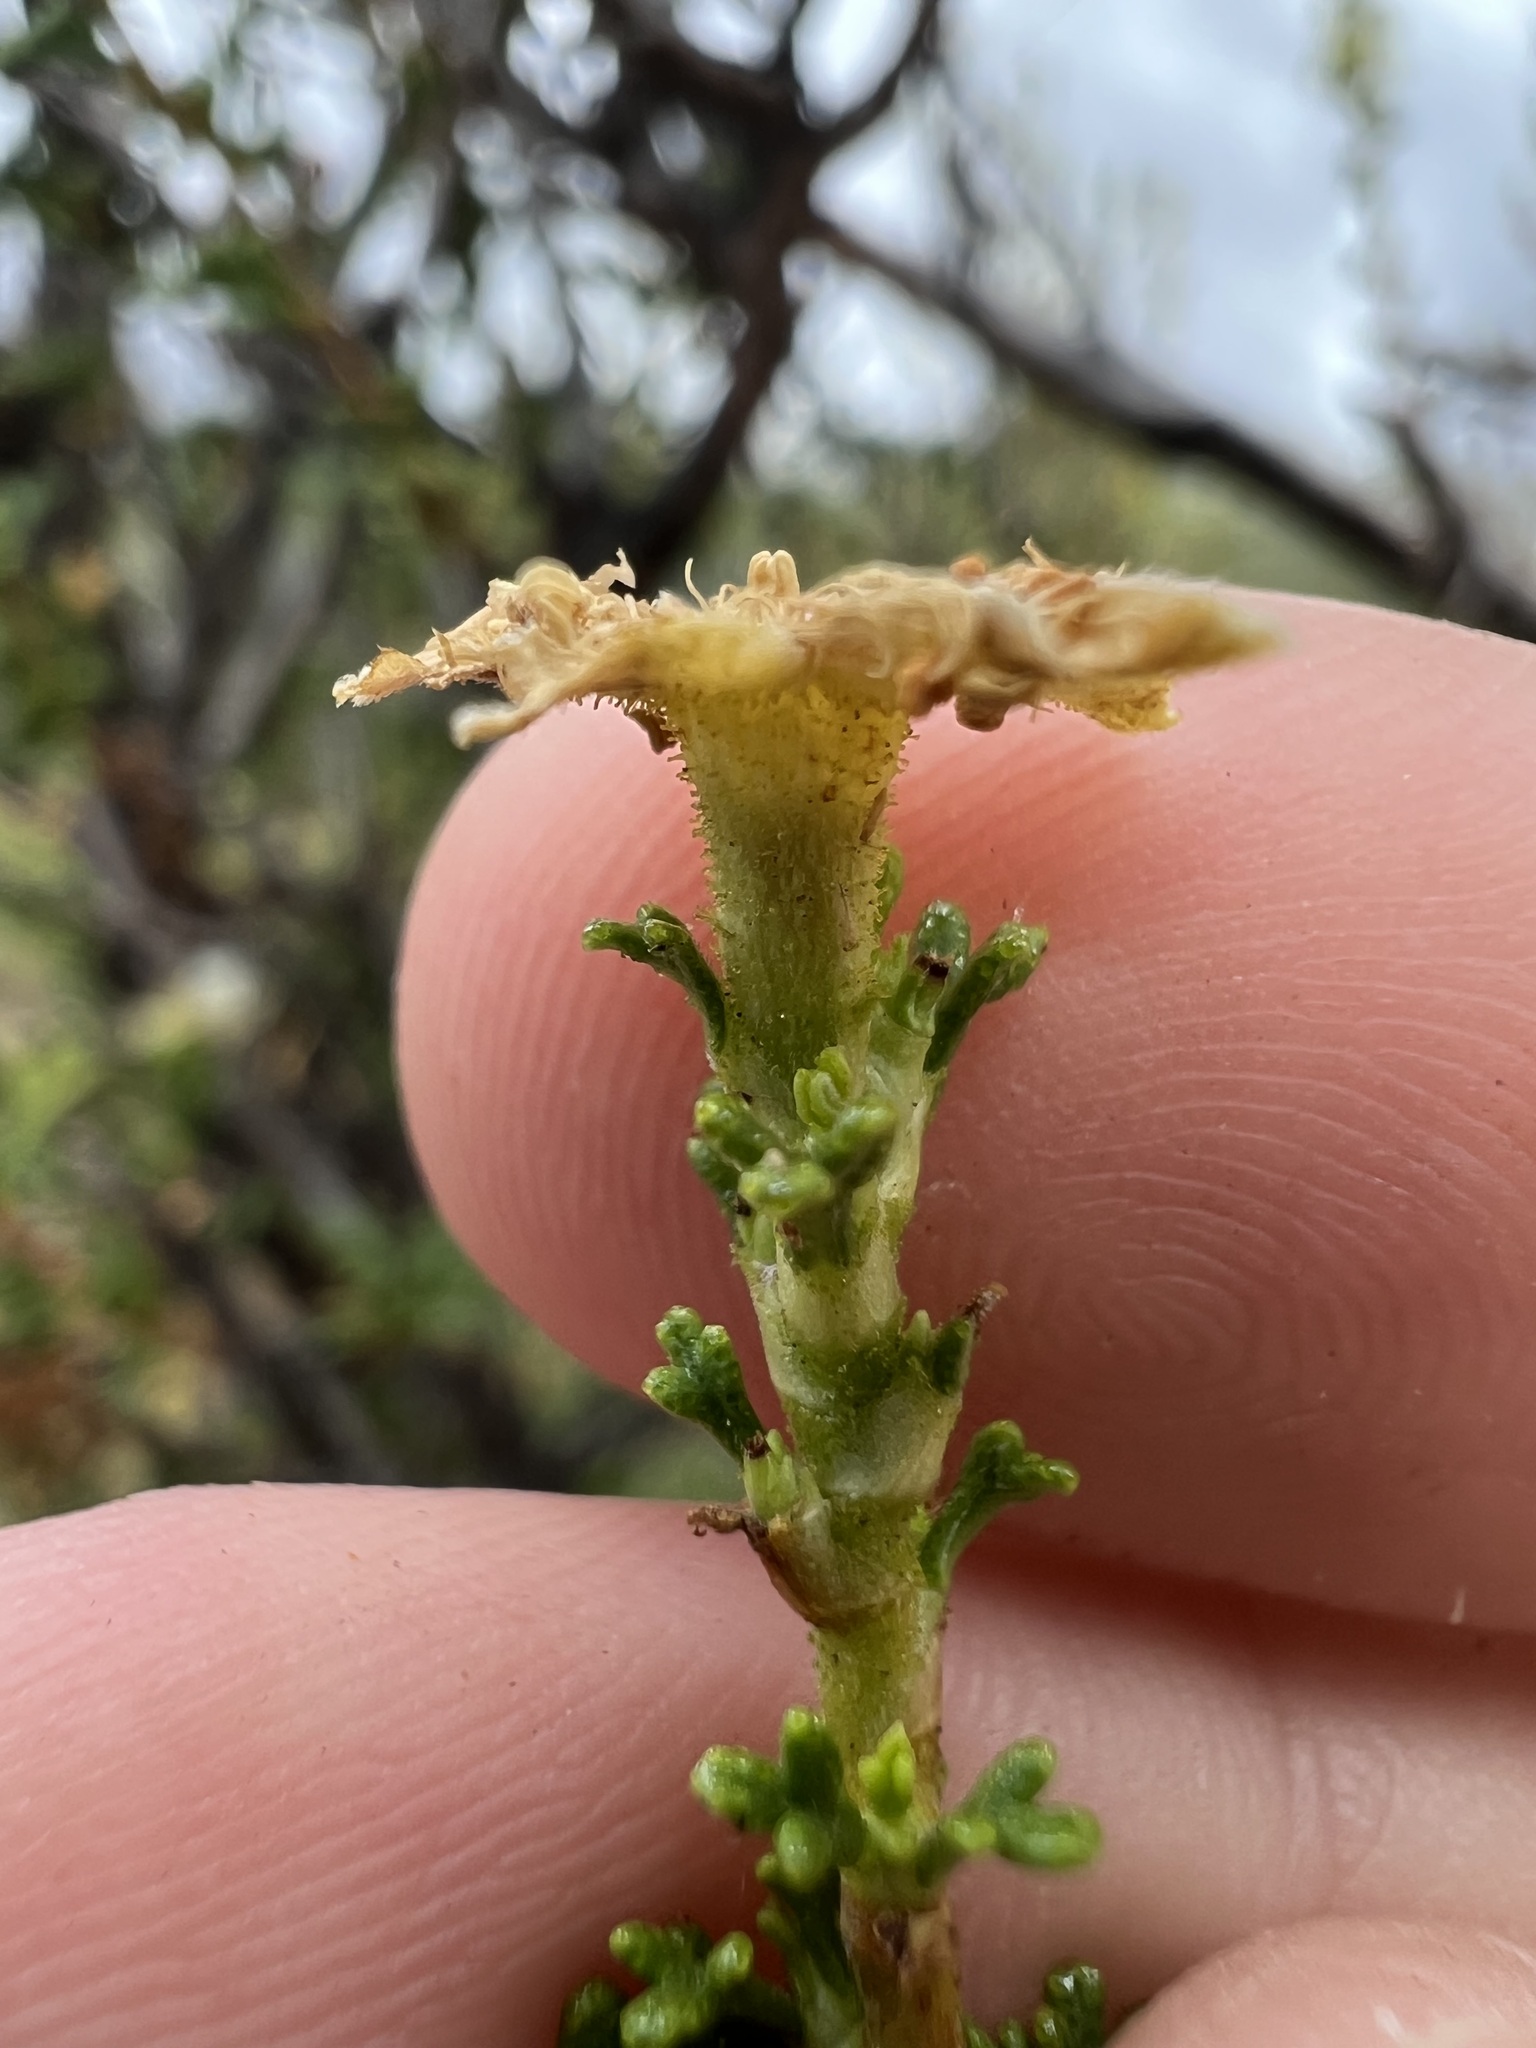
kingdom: Plantae
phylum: Tracheophyta
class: Magnoliopsida
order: Rosales
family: Rosaceae
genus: Purshia
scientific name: Purshia stansburiana
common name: Stansbury's cliffrose
